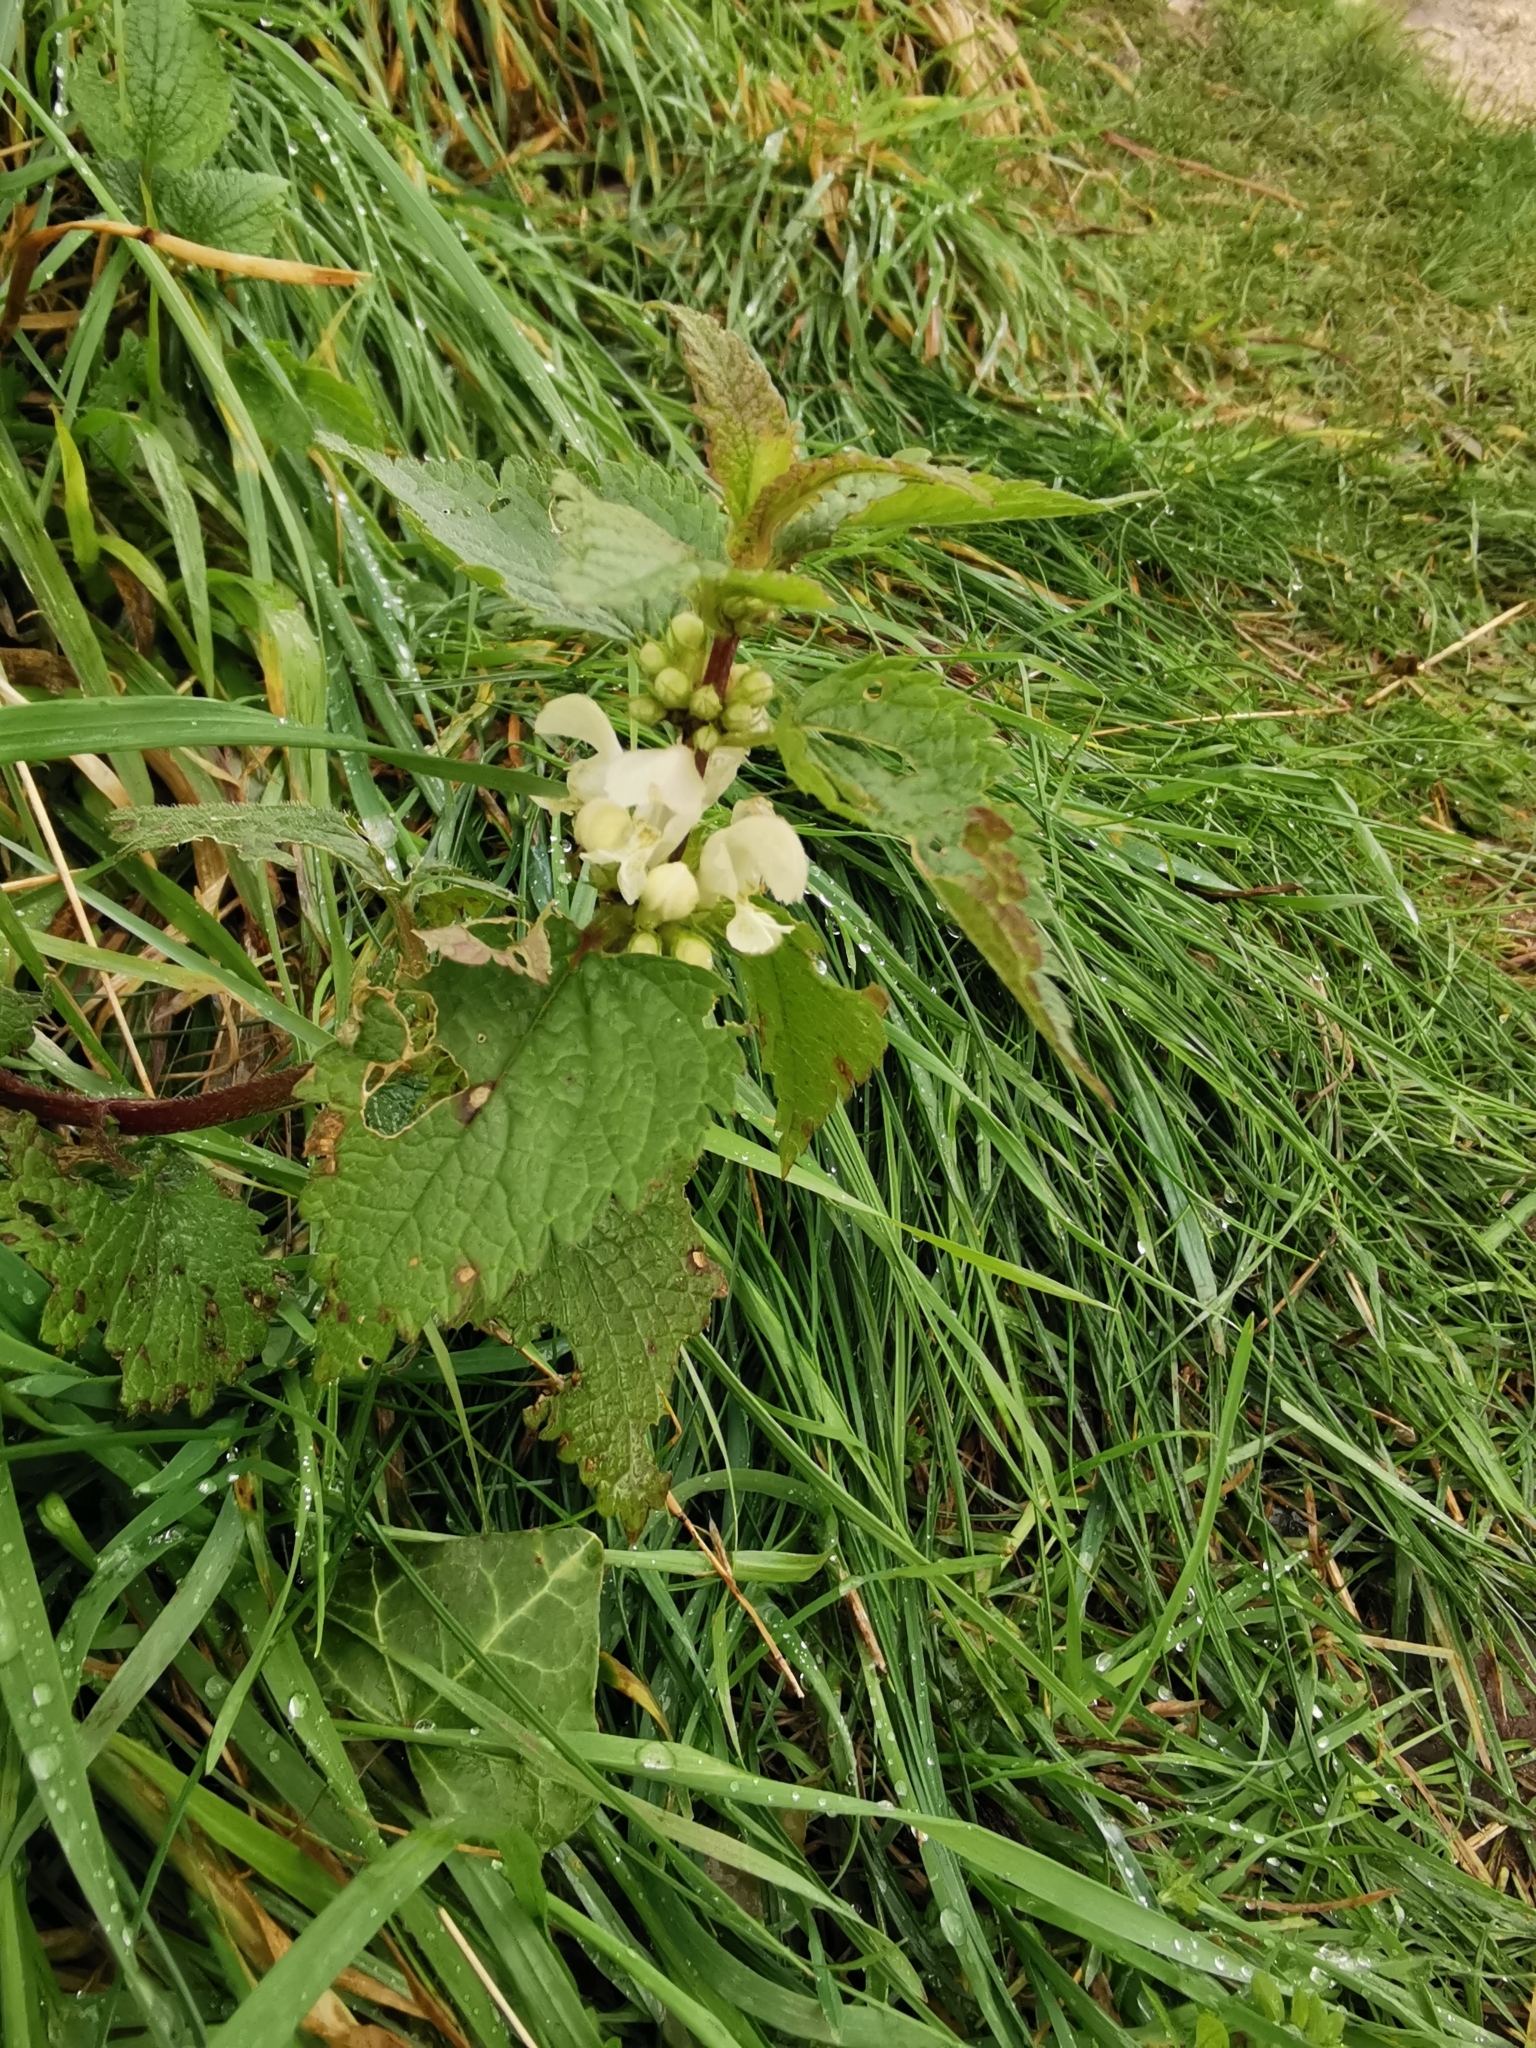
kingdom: Plantae
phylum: Tracheophyta
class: Magnoliopsida
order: Lamiales
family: Lamiaceae
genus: Lamium
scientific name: Lamium album
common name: White dead-nettle
